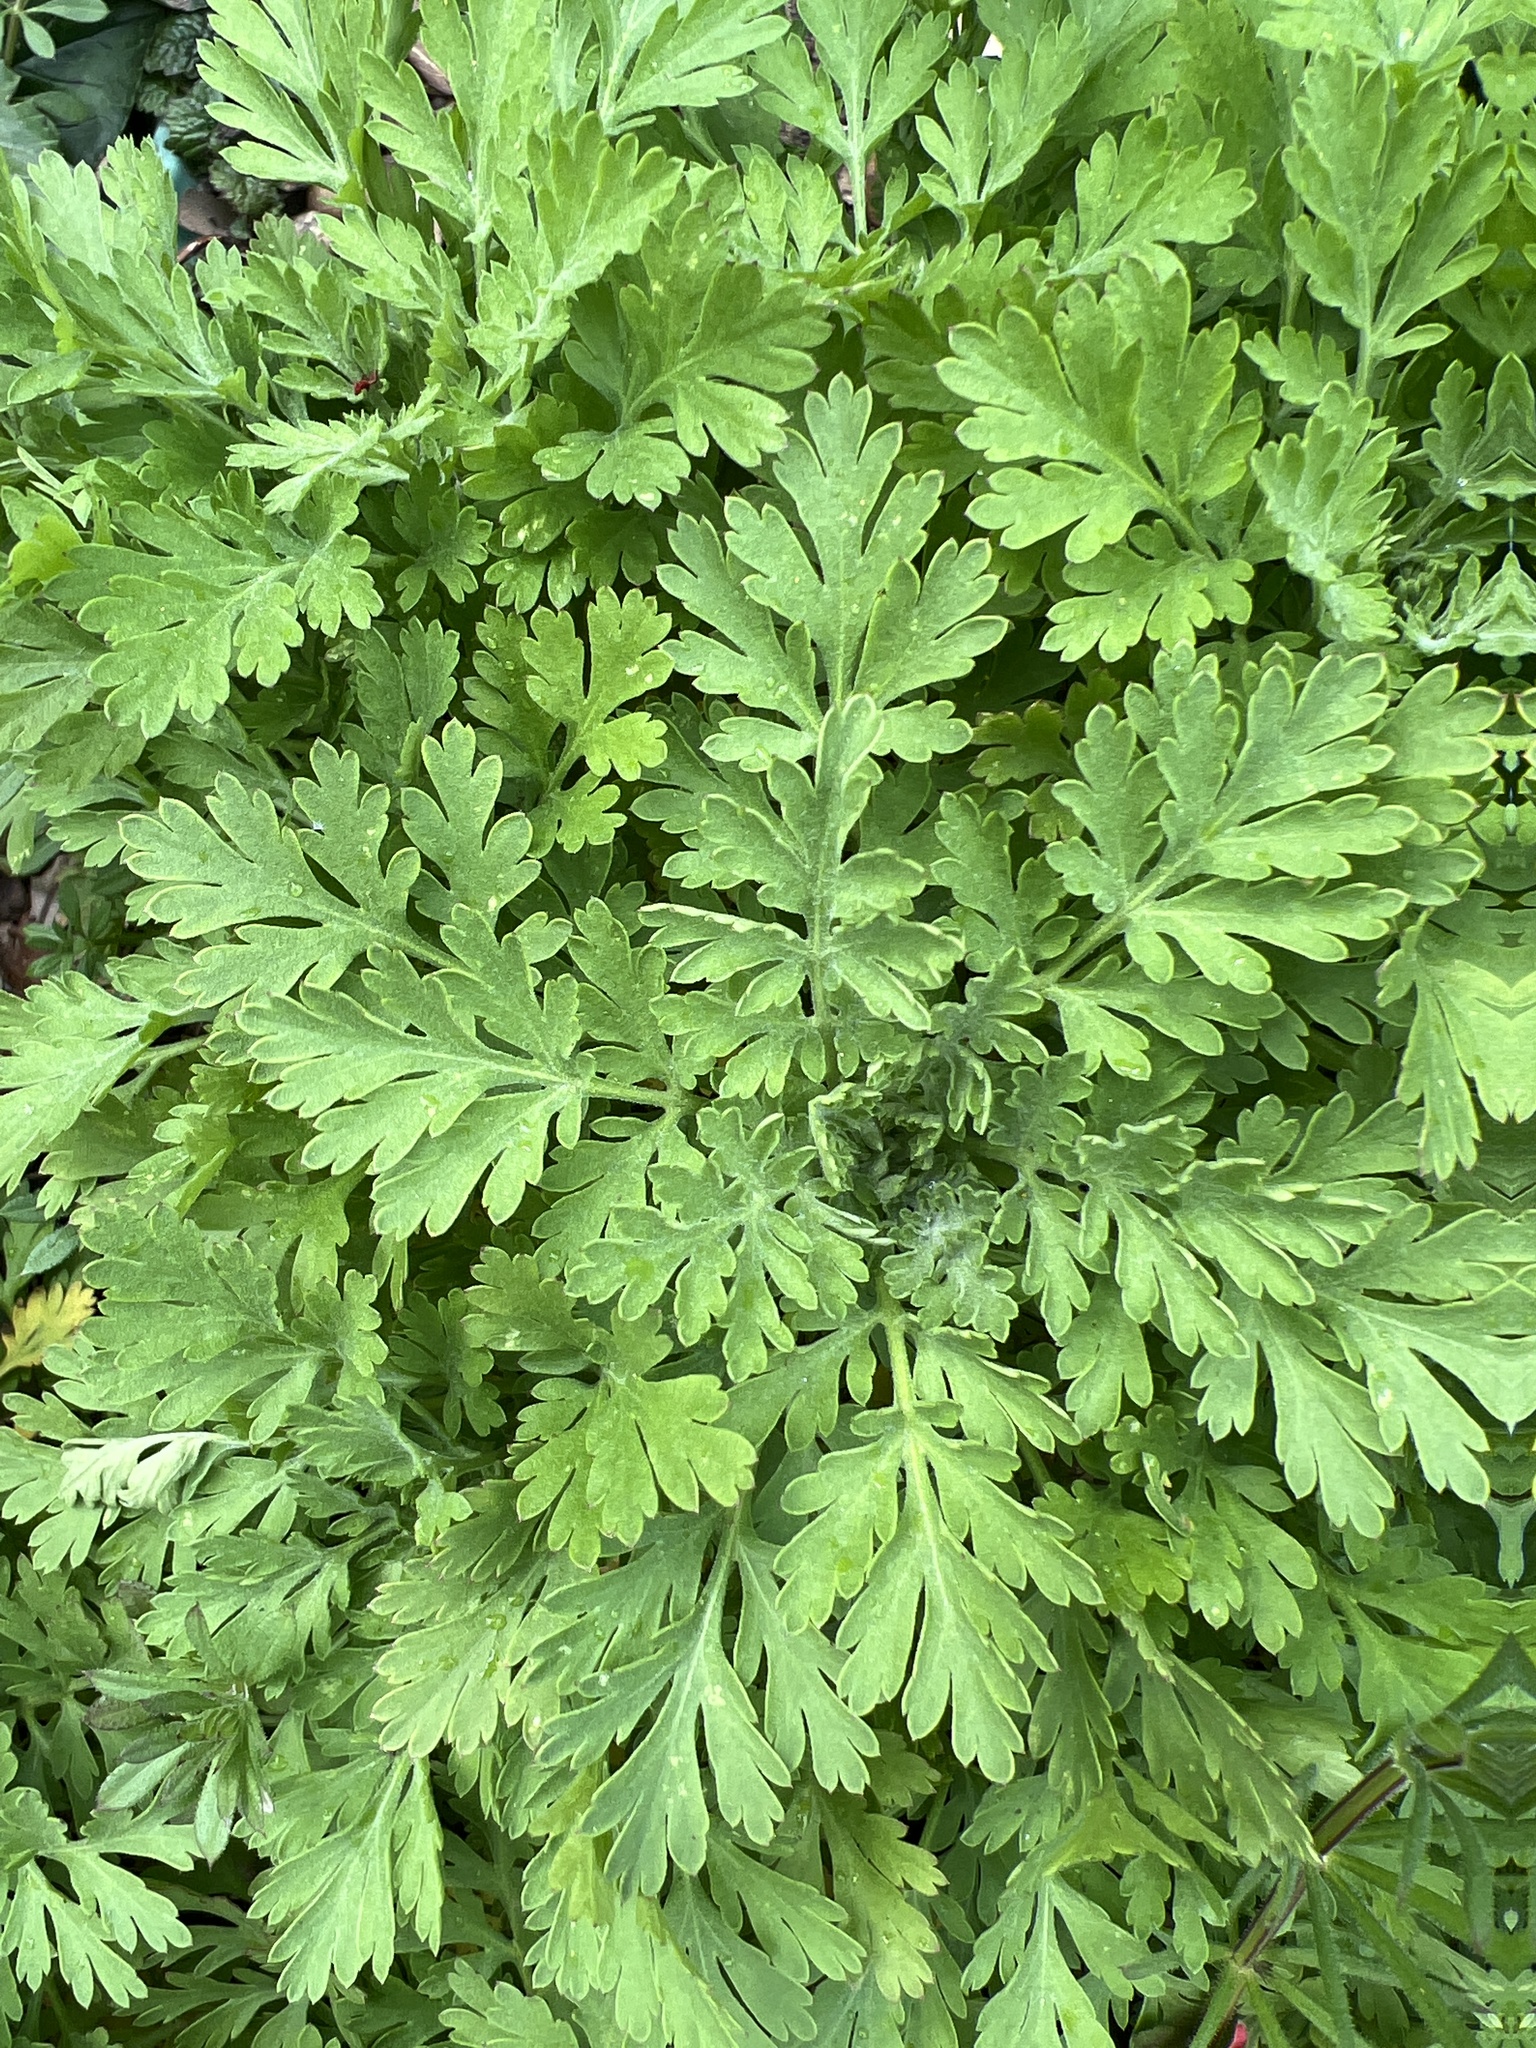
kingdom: Plantae
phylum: Tracheophyta
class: Magnoliopsida
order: Asterales
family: Asteraceae
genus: Tanacetum
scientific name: Tanacetum parthenium
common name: Feverfew
